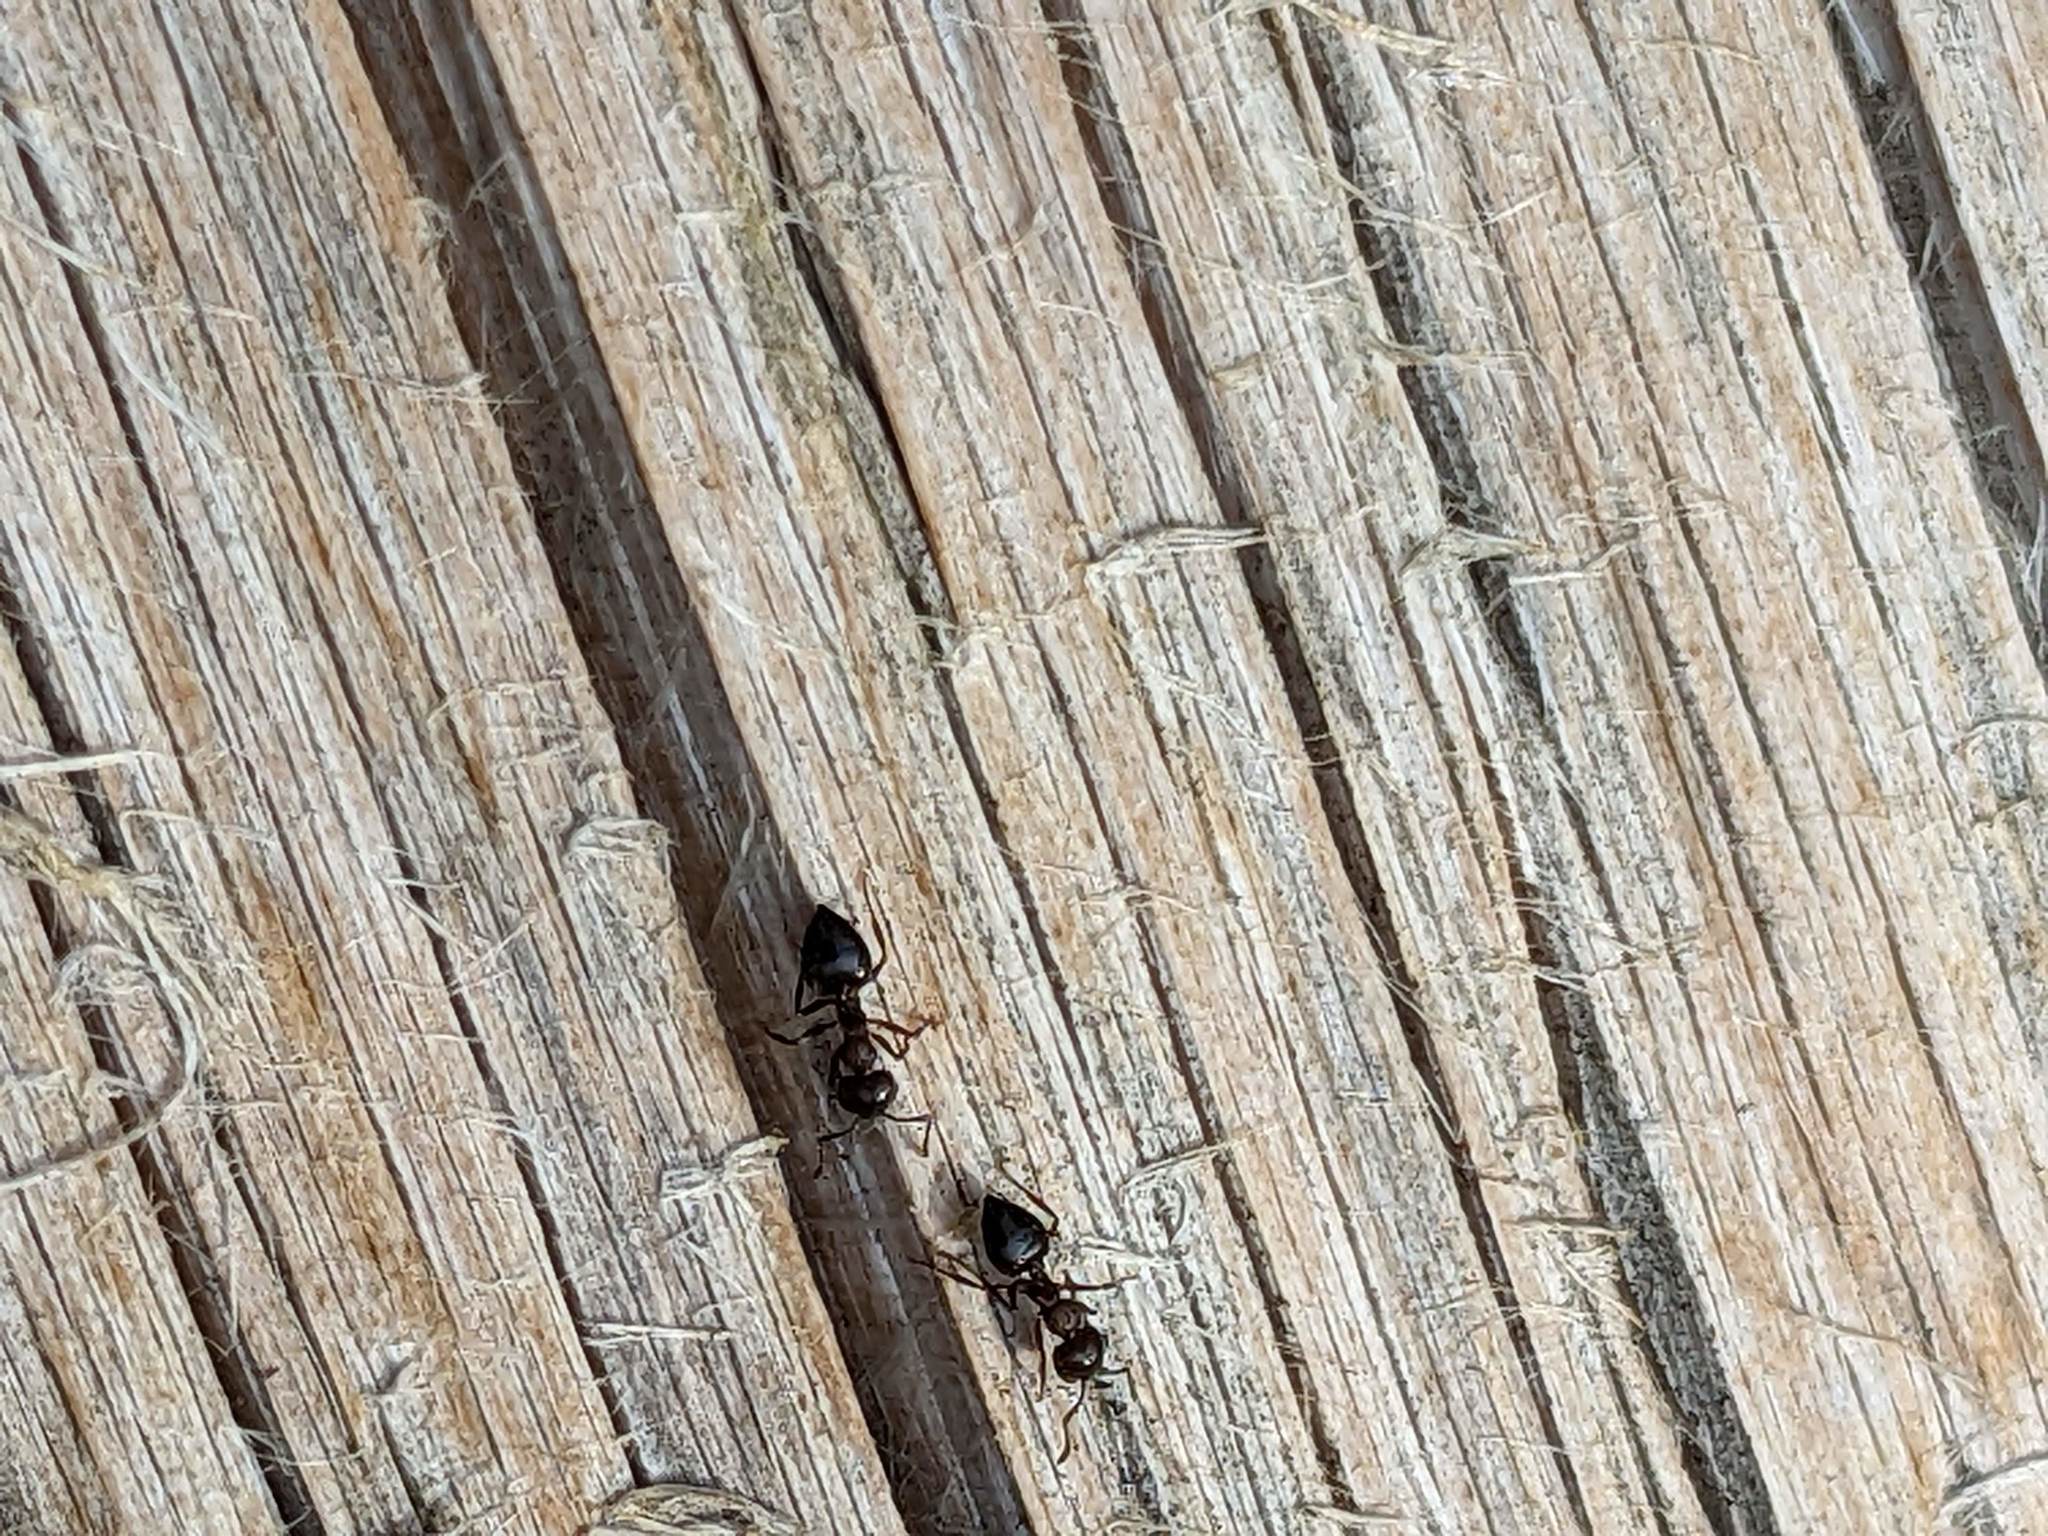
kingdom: Animalia
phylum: Arthropoda
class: Insecta
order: Hymenoptera
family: Formicidae
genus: Crematogaster
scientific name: Crematogaster
